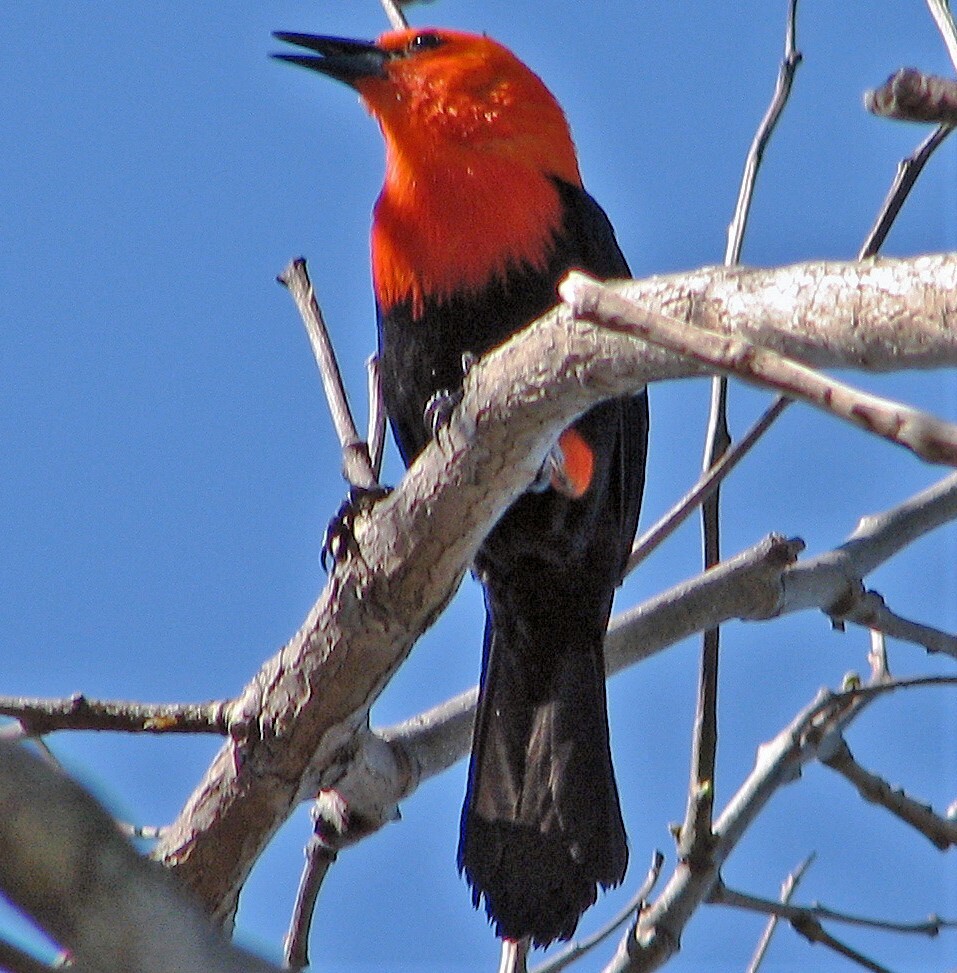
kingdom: Animalia
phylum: Chordata
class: Aves
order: Passeriformes
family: Icteridae
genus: Amblyramphus
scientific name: Amblyramphus holosericeus
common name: Scarlet-headed blackbird
